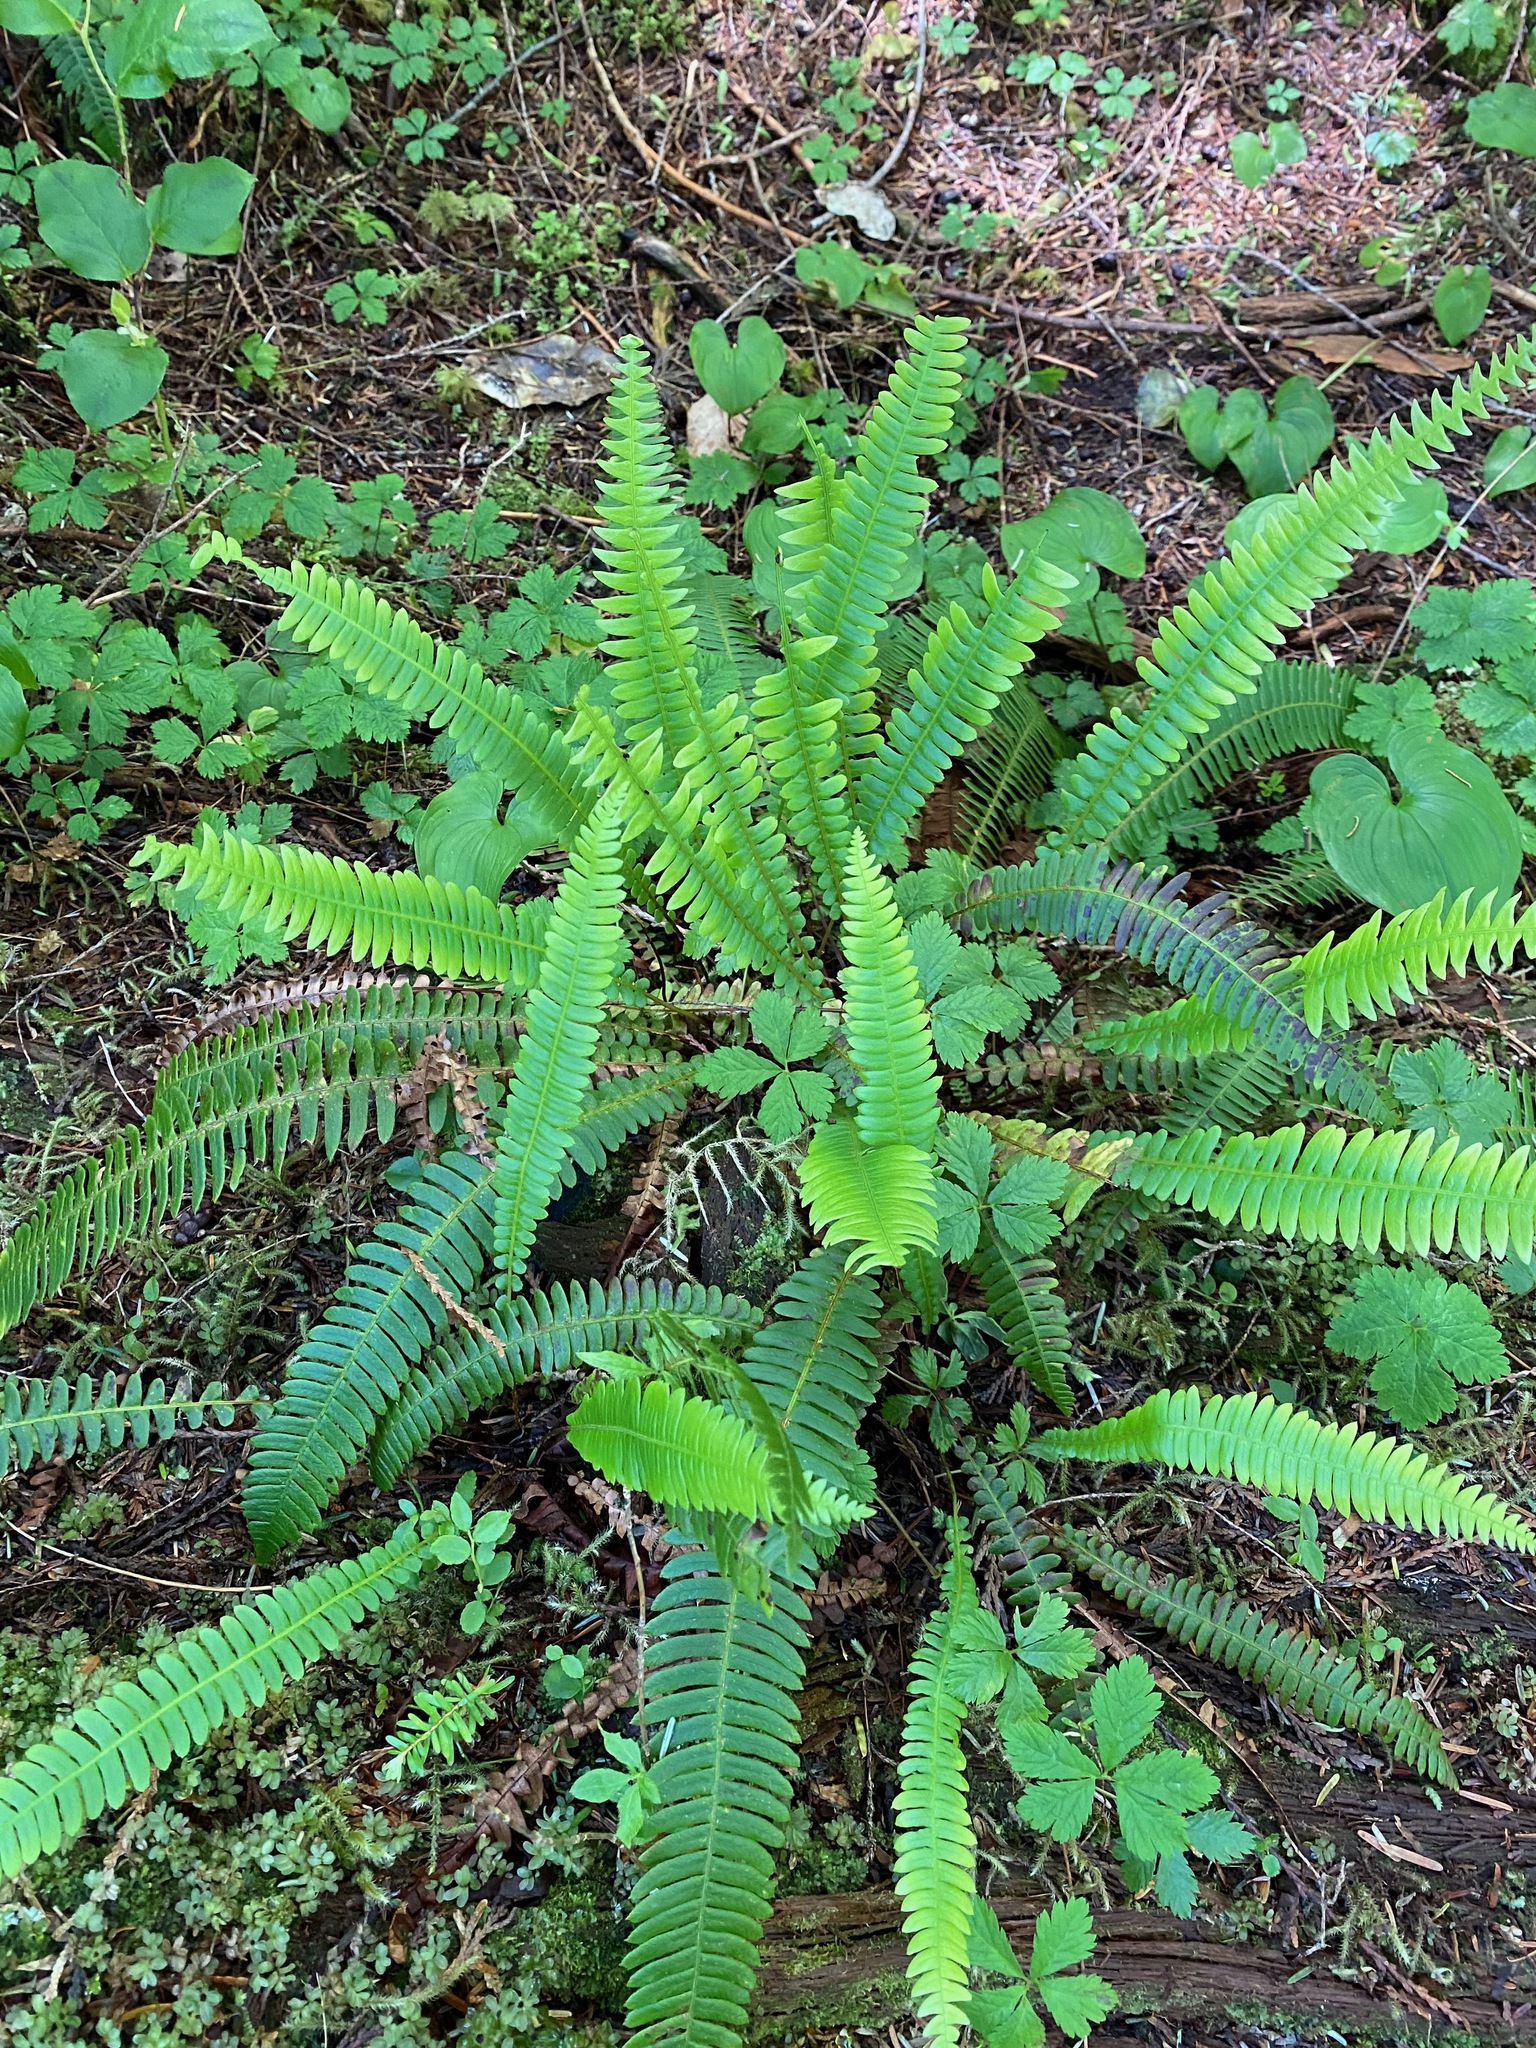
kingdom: Plantae
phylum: Tracheophyta
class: Polypodiopsida
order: Polypodiales
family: Blechnaceae
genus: Struthiopteris
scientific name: Struthiopteris spicant
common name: Deer fern
